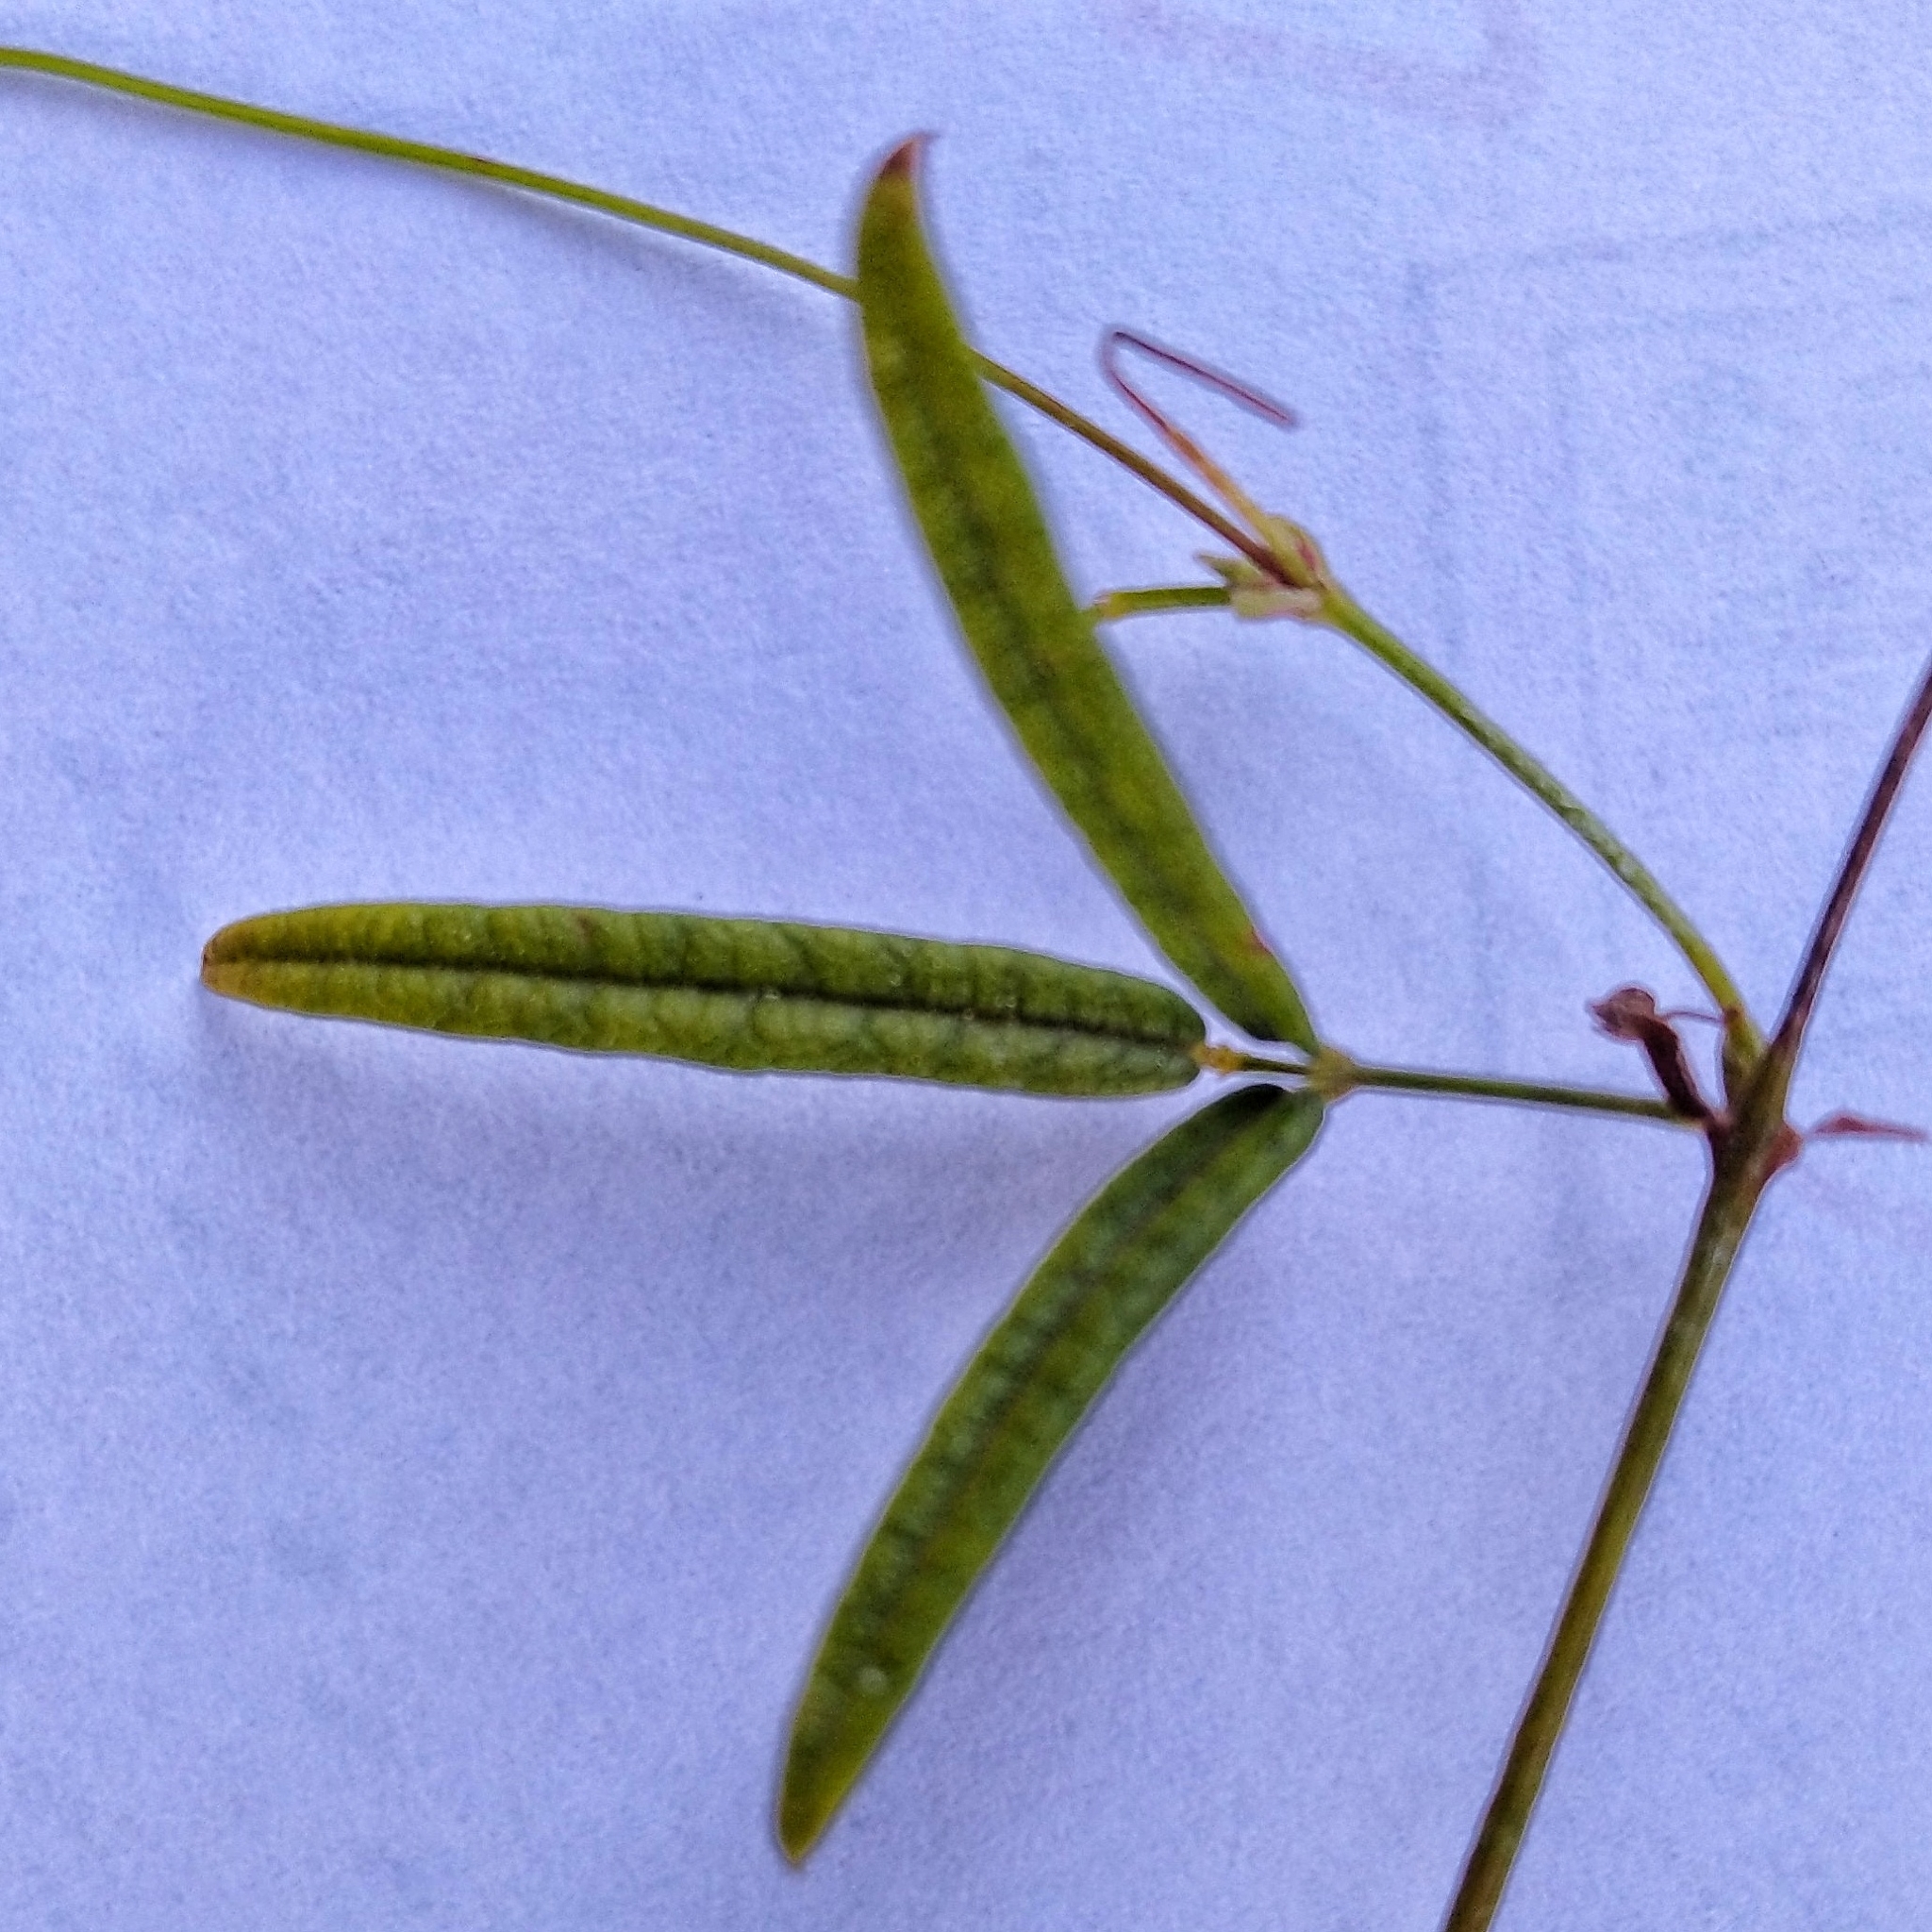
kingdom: Plantae
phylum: Tracheophyta
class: Magnoliopsida
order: Fabales
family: Fabaceae
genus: Rhynchosia
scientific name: Rhynchosia leucoscias
